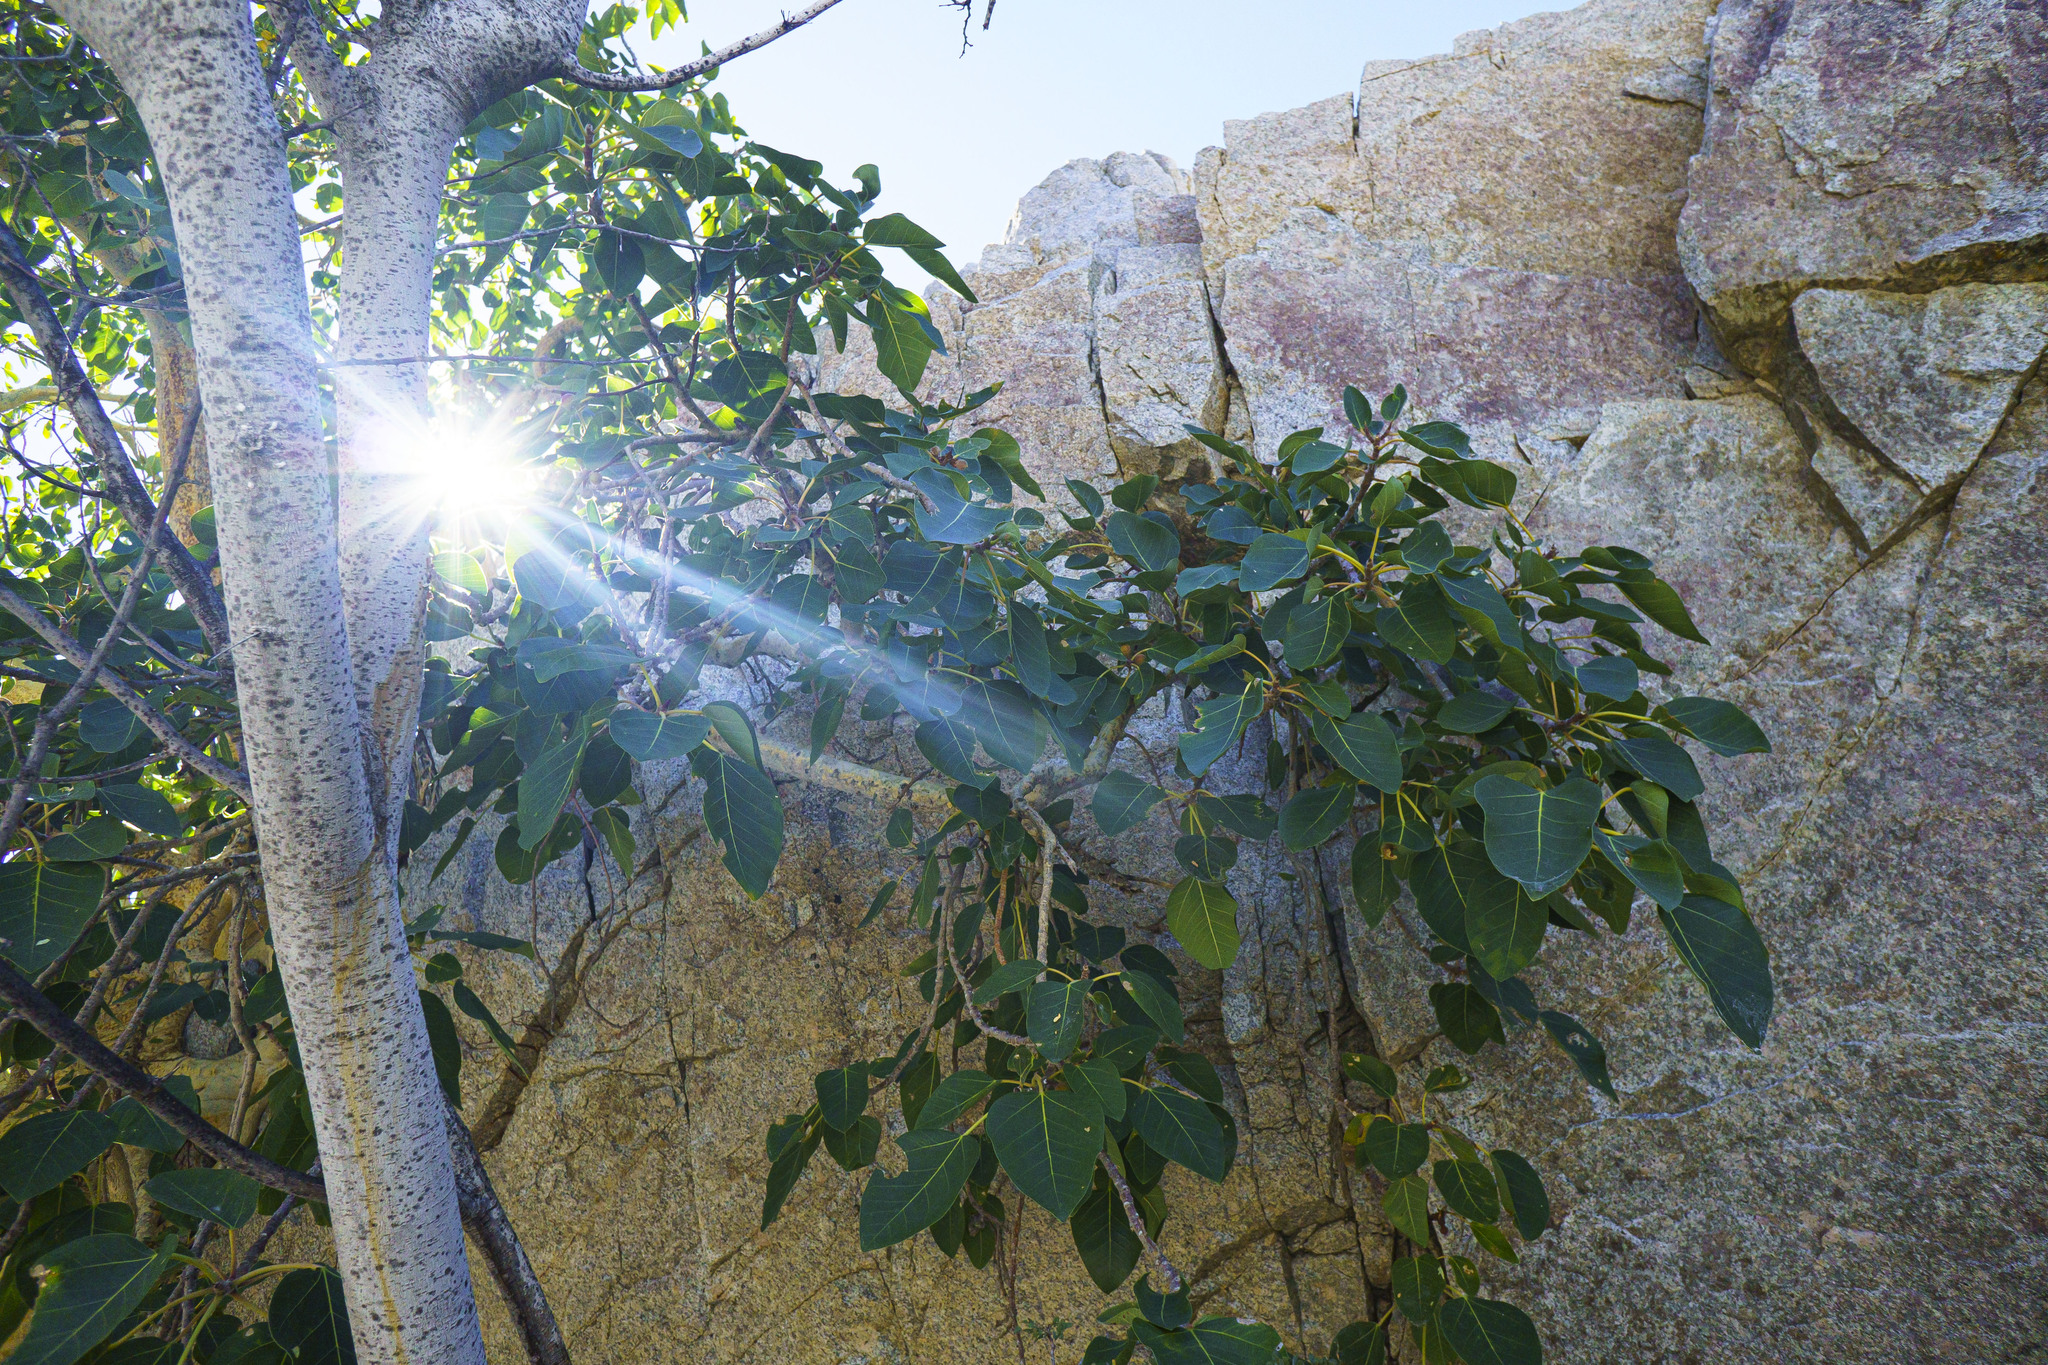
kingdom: Plantae
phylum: Tracheophyta
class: Magnoliopsida
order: Rosales
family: Moraceae
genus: Ficus
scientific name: Ficus petiolaris
